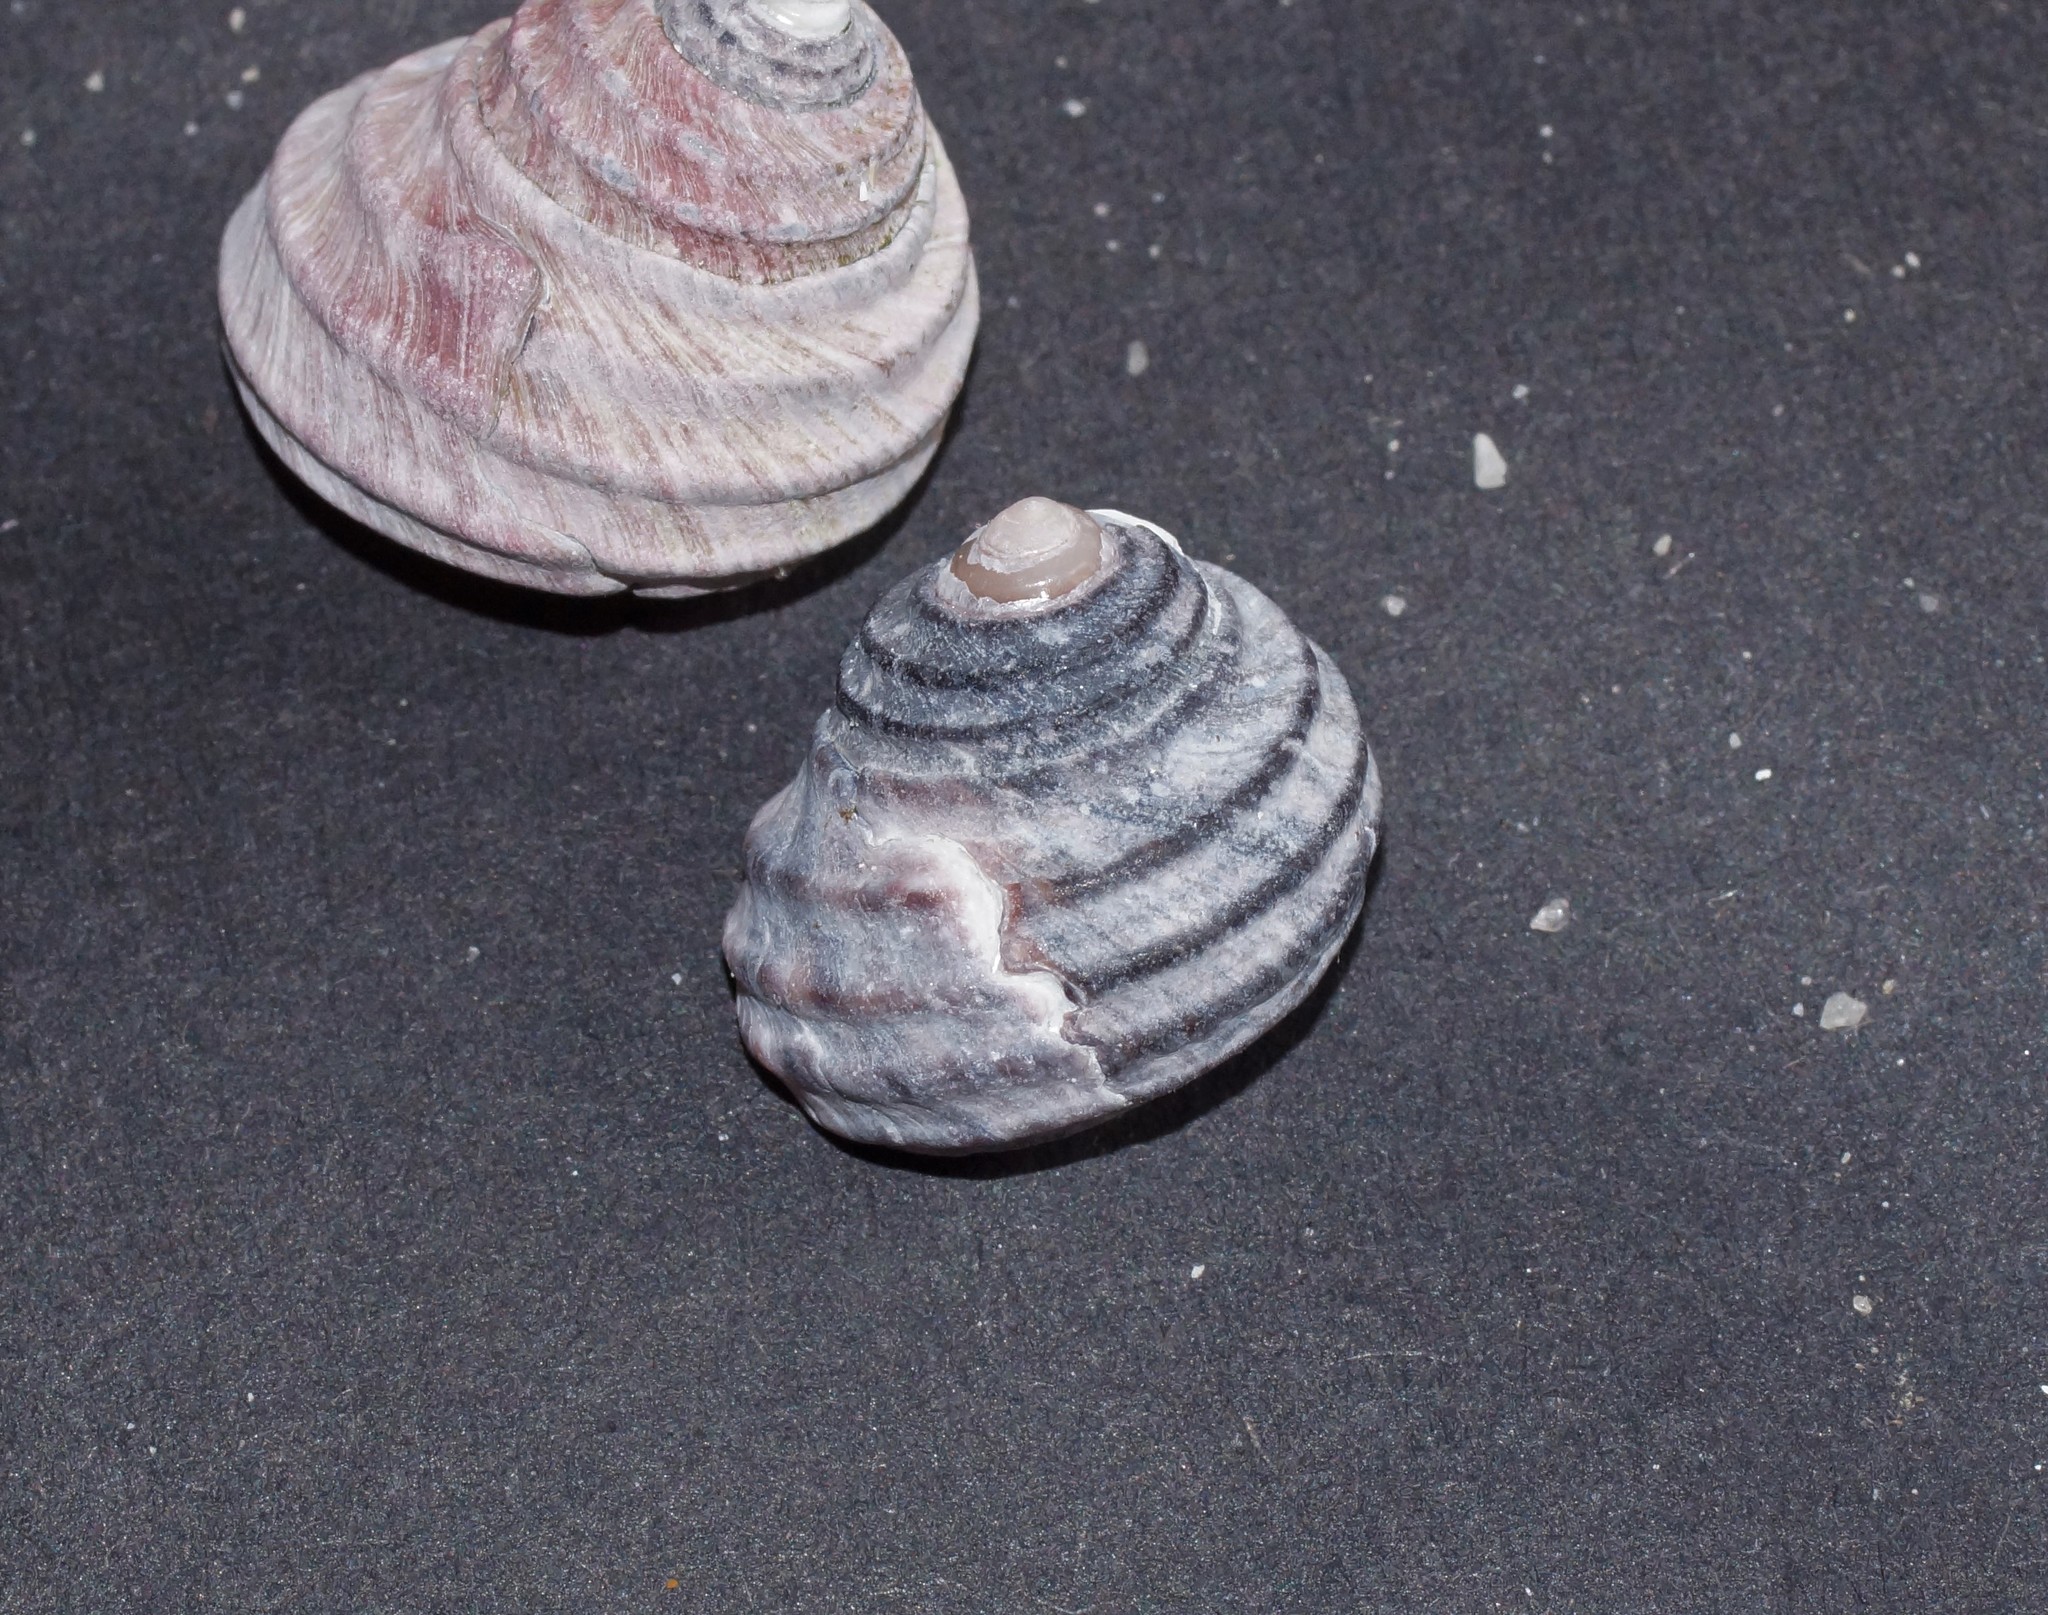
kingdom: Animalia
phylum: Mollusca
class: Gastropoda
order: Trochida
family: Trochidae
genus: Austrocochlea
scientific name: Austrocochlea constricta
